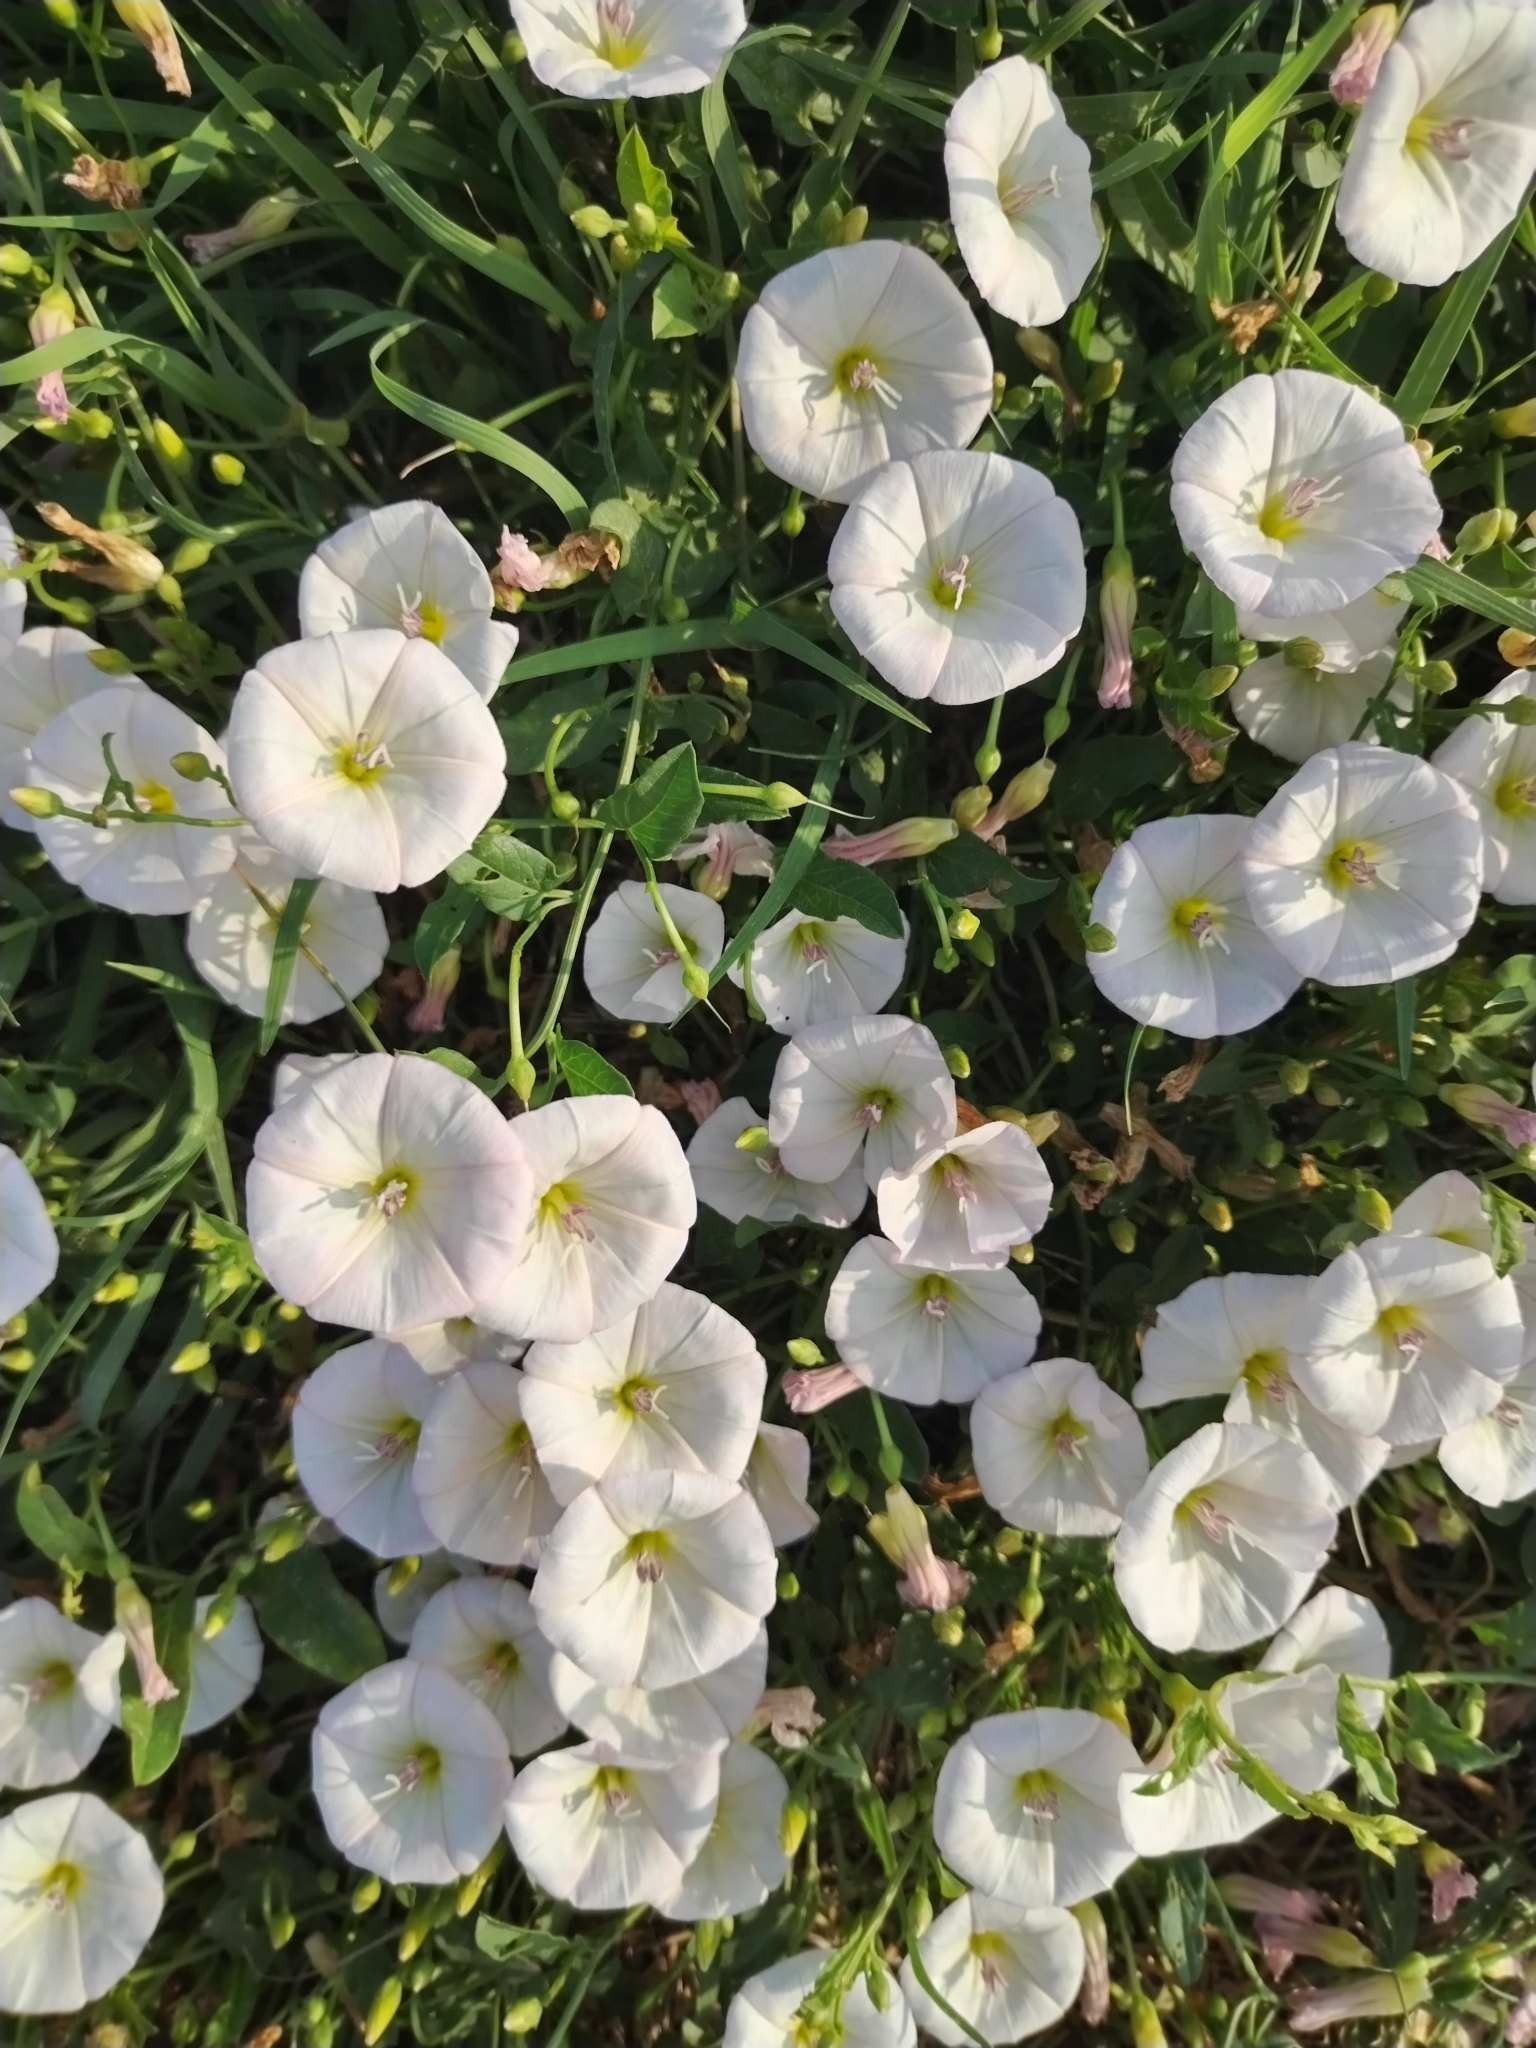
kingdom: Plantae
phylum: Tracheophyta
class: Magnoliopsida
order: Solanales
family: Convolvulaceae
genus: Convolvulus
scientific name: Convolvulus arvensis
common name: Field bindweed
